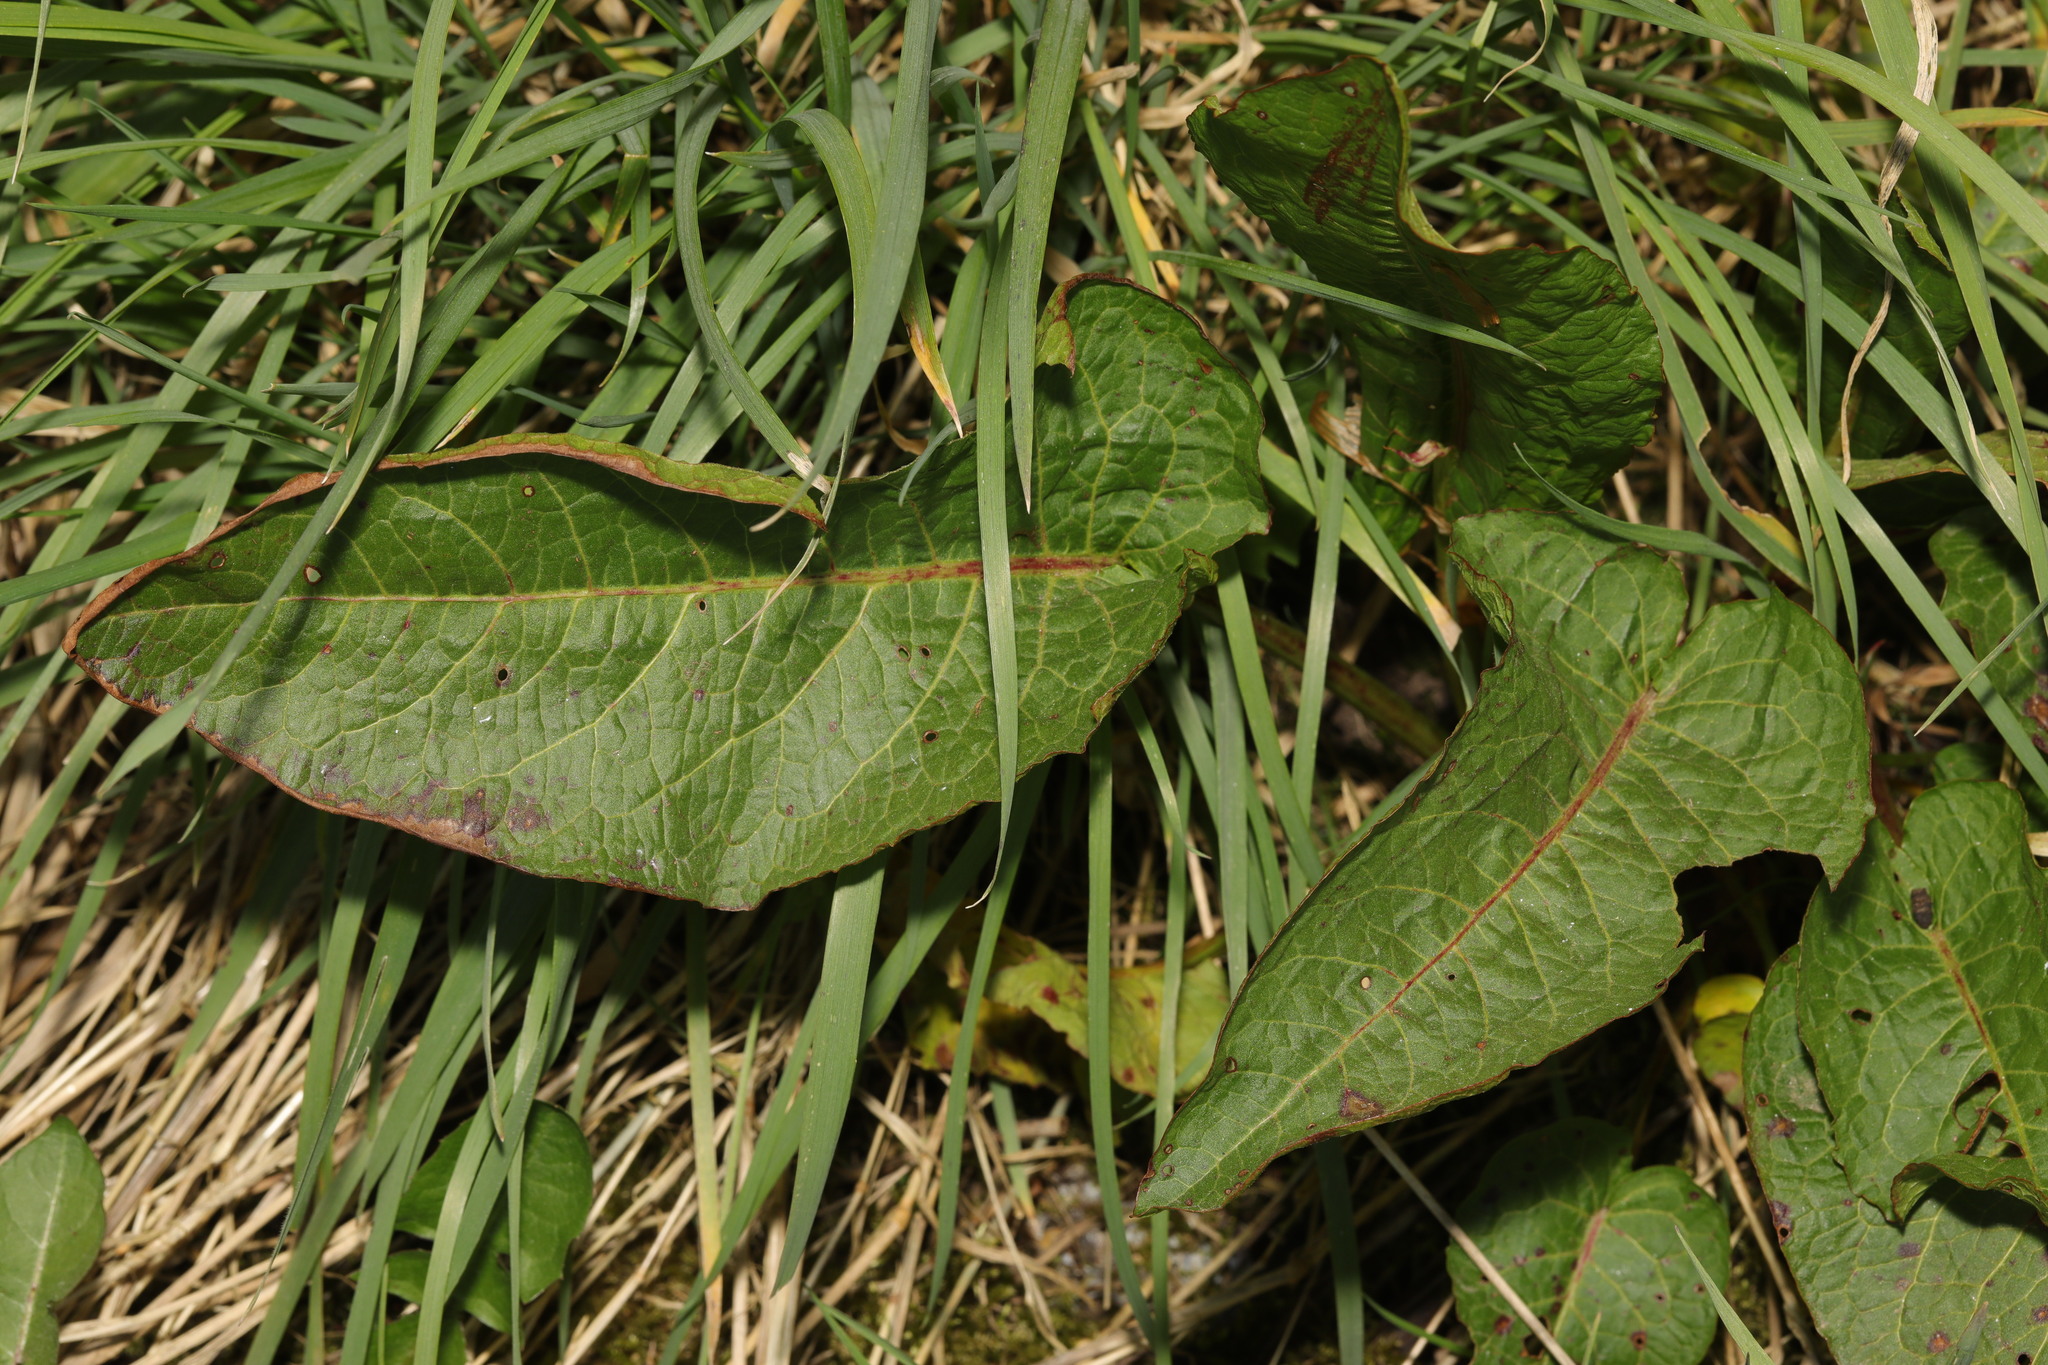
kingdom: Plantae
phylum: Tracheophyta
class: Magnoliopsida
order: Caryophyllales
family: Polygonaceae
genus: Rumex
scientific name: Rumex obtusifolius
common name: Bitter dock
